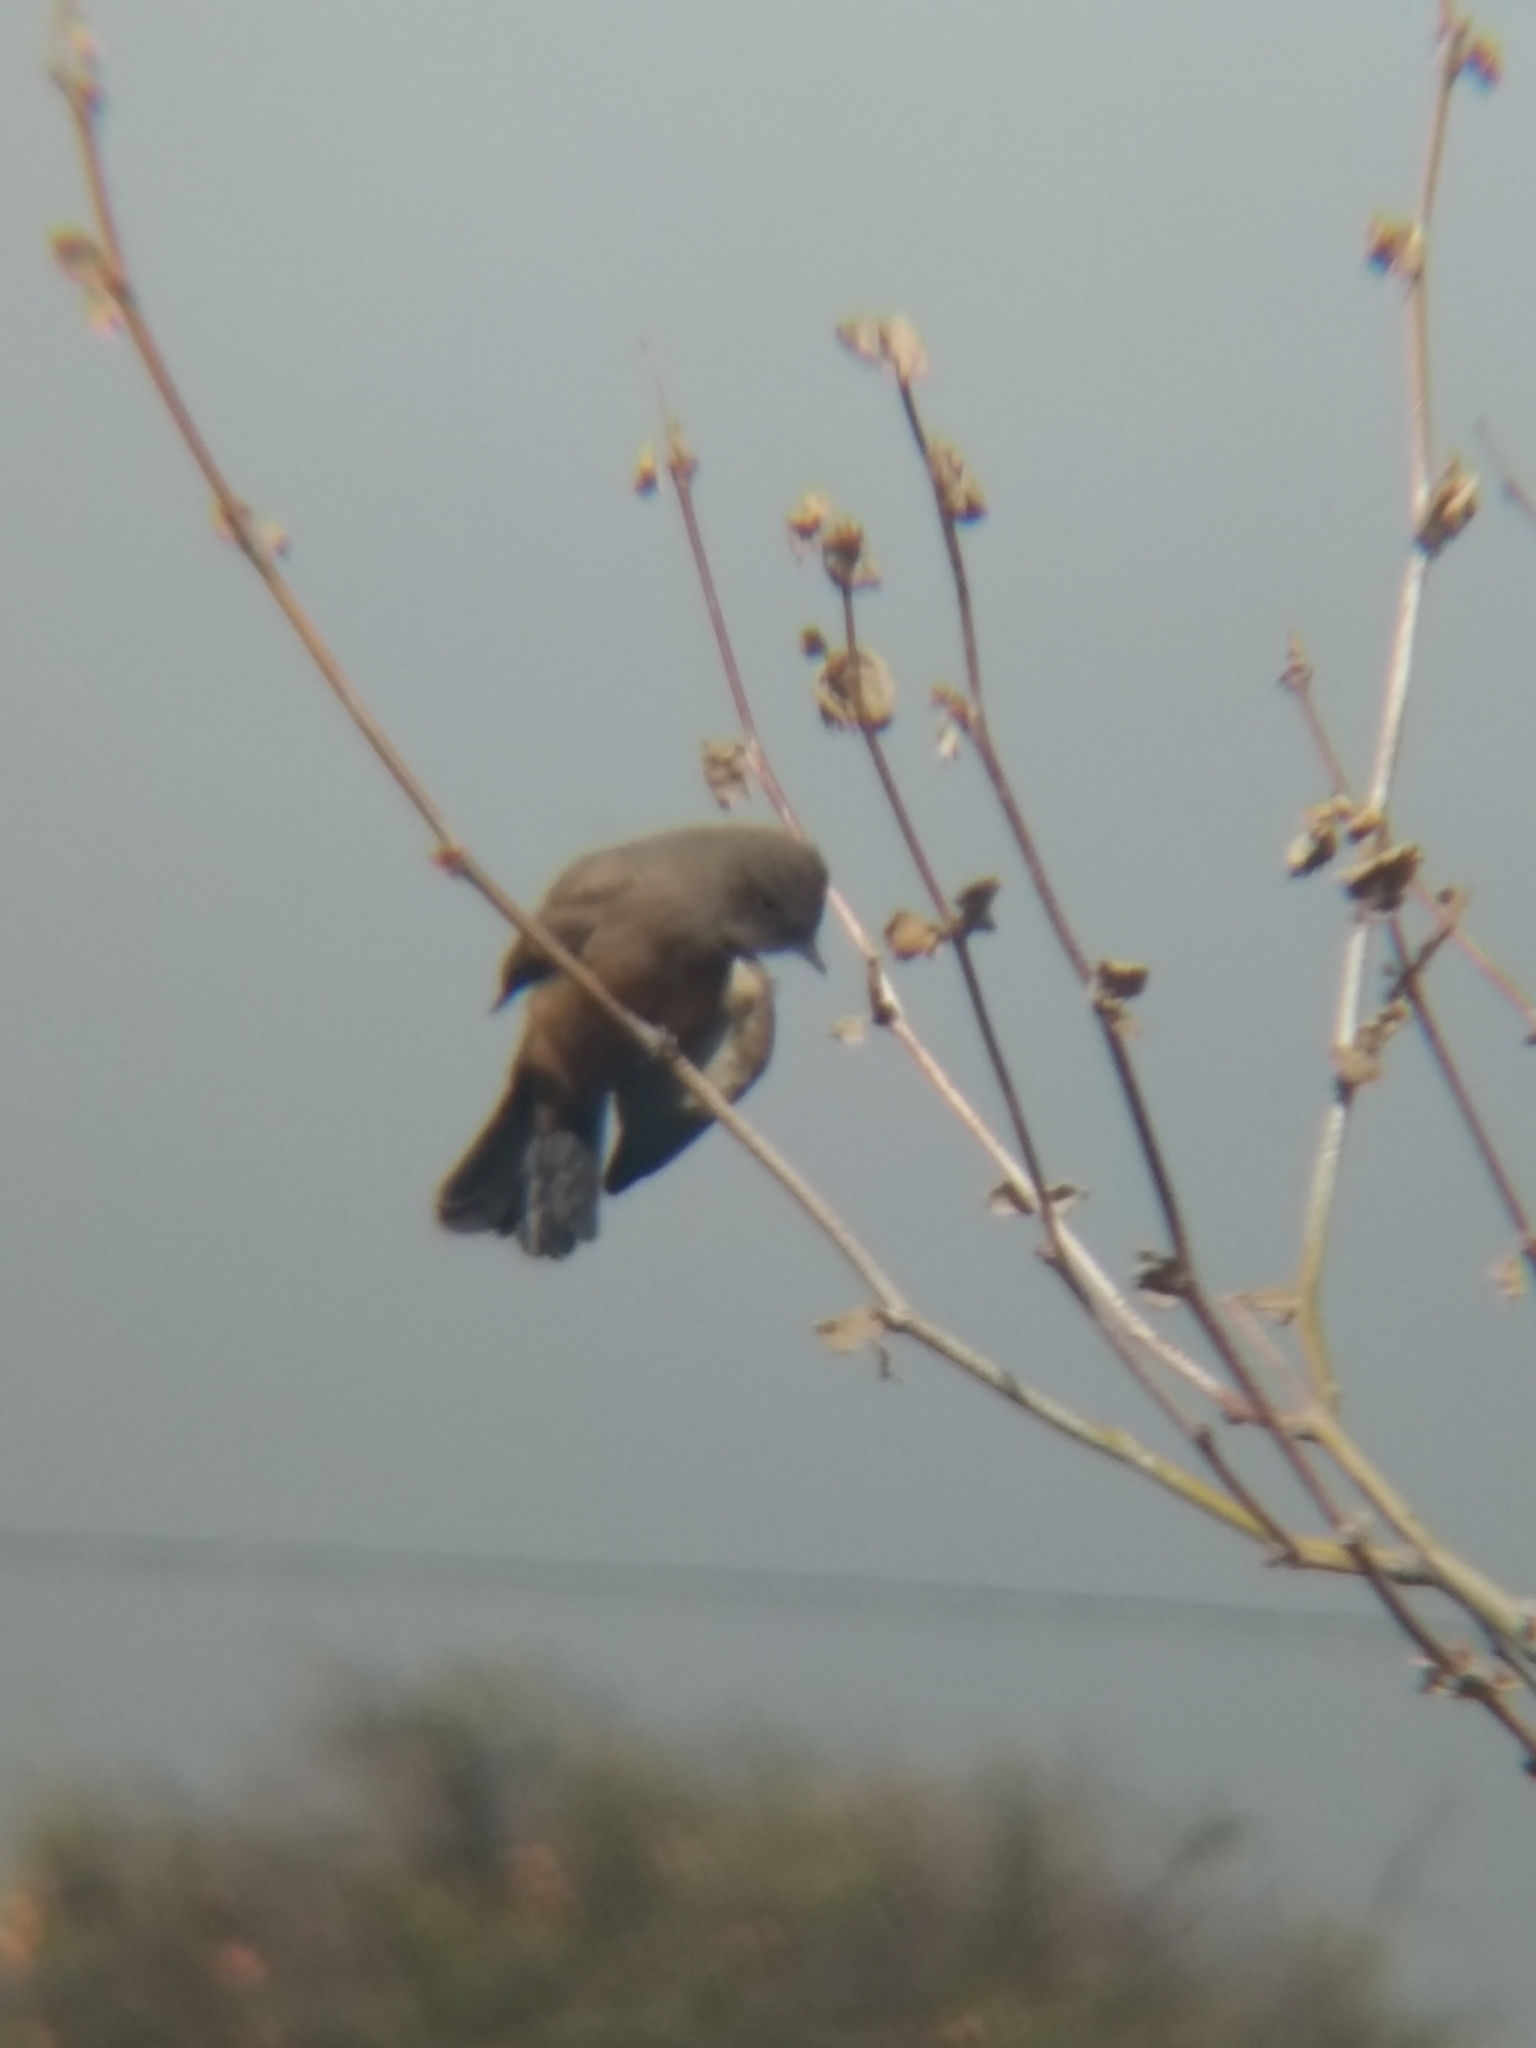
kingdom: Animalia
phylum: Chordata
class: Aves
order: Passeriformes
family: Tyrannidae
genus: Sayornis
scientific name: Sayornis saya
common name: Say's phoebe
